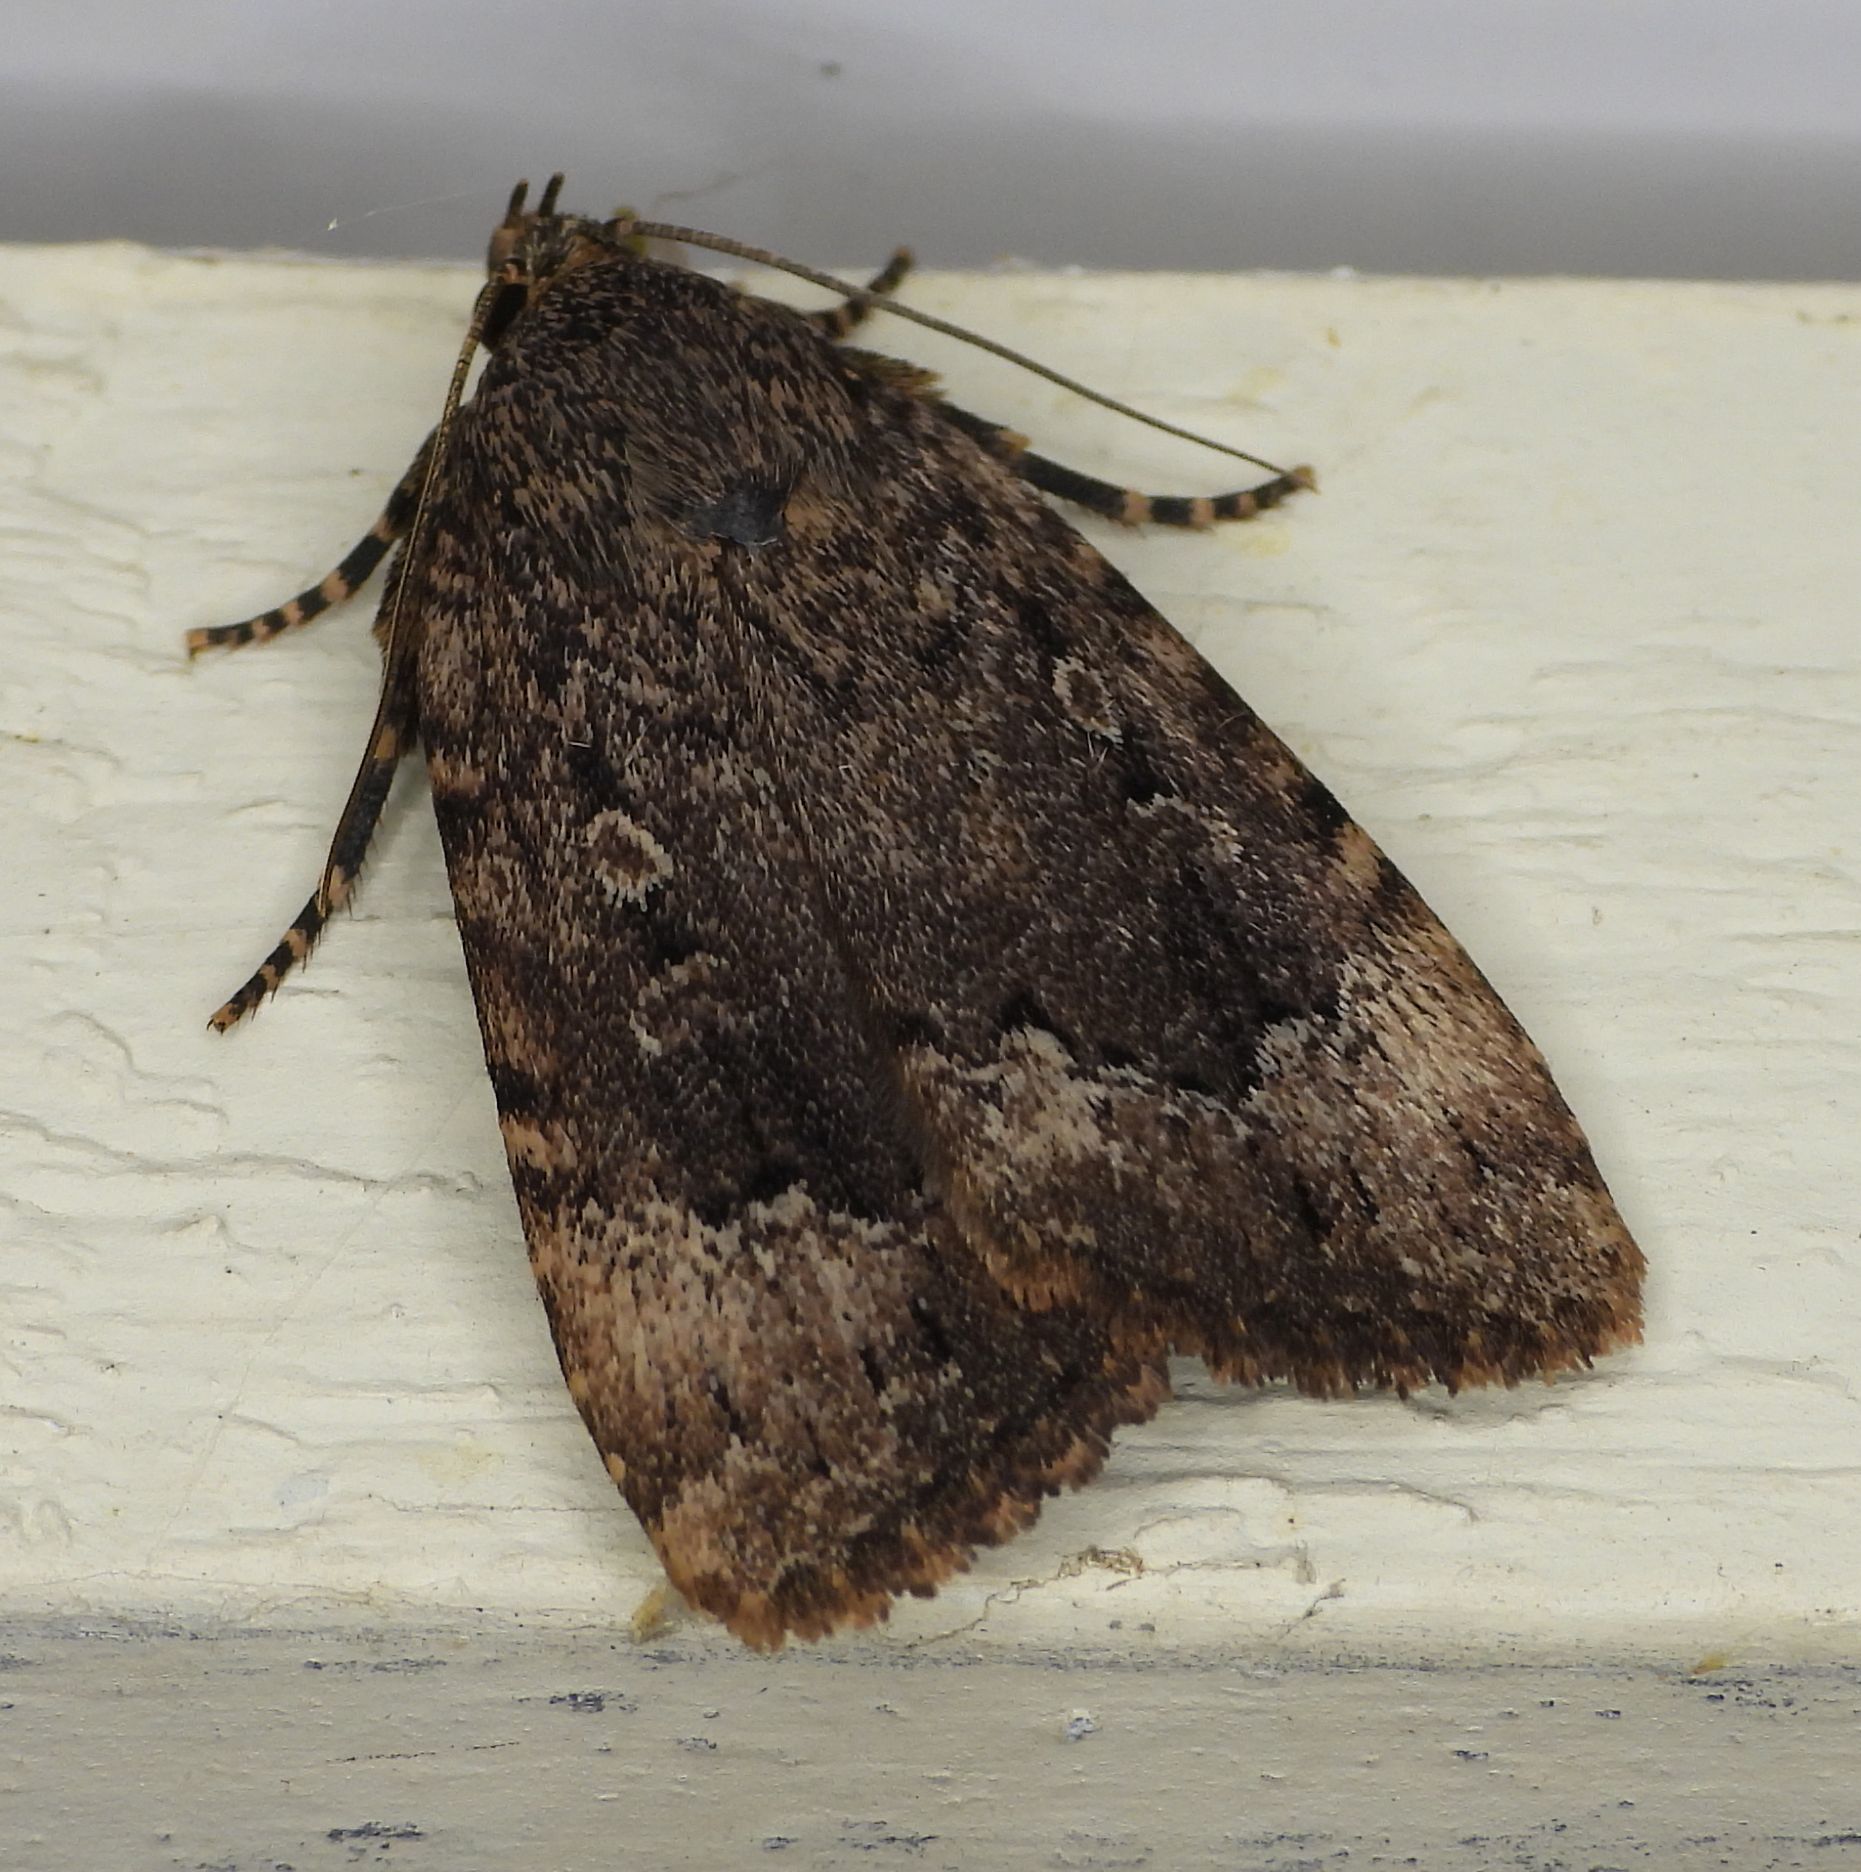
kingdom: Animalia
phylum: Arthropoda
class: Insecta
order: Lepidoptera
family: Noctuidae
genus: Amphipyra
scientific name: Amphipyra pyramidoides
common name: American copper underwing
